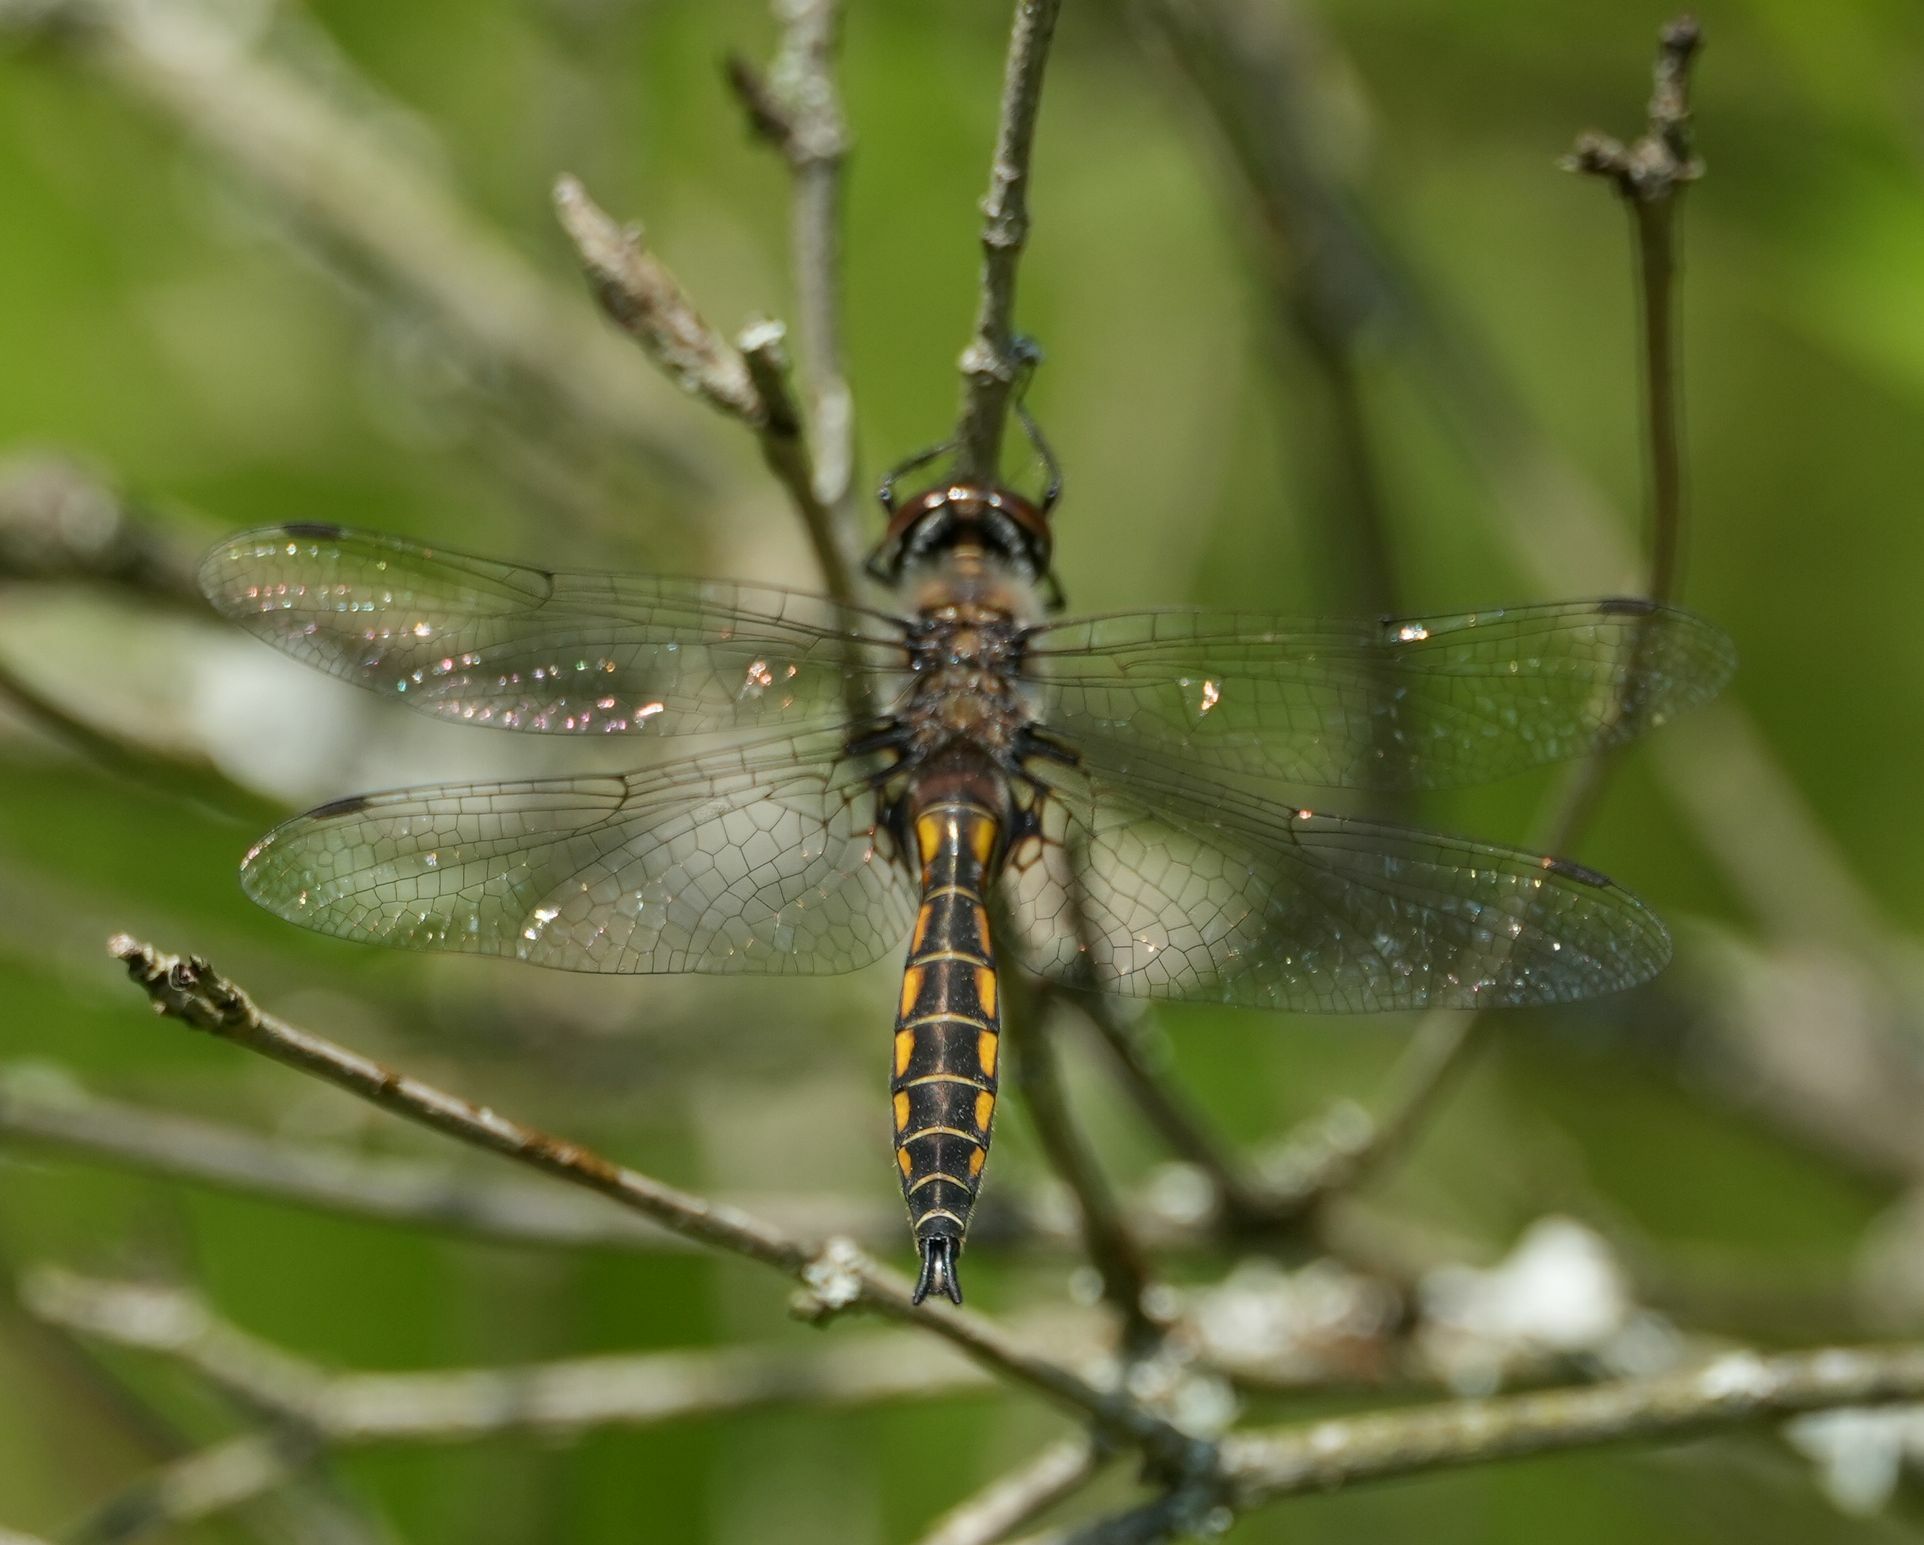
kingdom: Animalia
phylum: Arthropoda
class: Insecta
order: Odonata
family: Corduliidae
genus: Epitheca
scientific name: Epitheca spinigera
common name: Spiny baskettail
